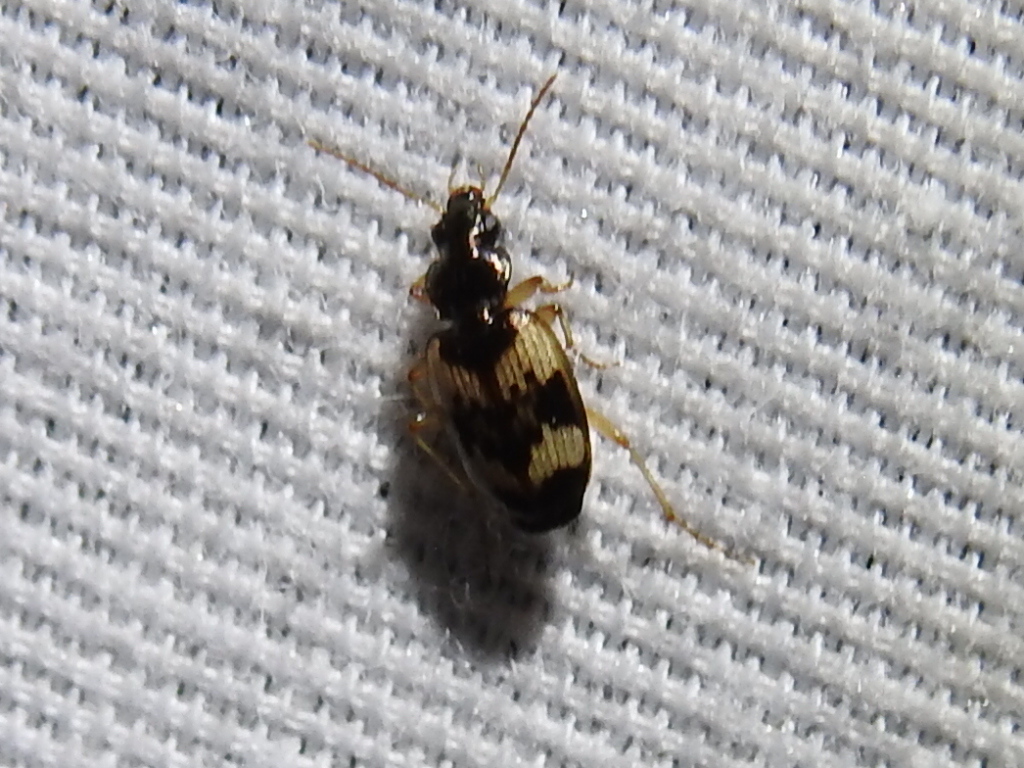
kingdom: Animalia
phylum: Arthropoda
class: Insecta
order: Coleoptera
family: Carabidae
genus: Tetragonoderus
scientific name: Tetragonoderus fasciatus
